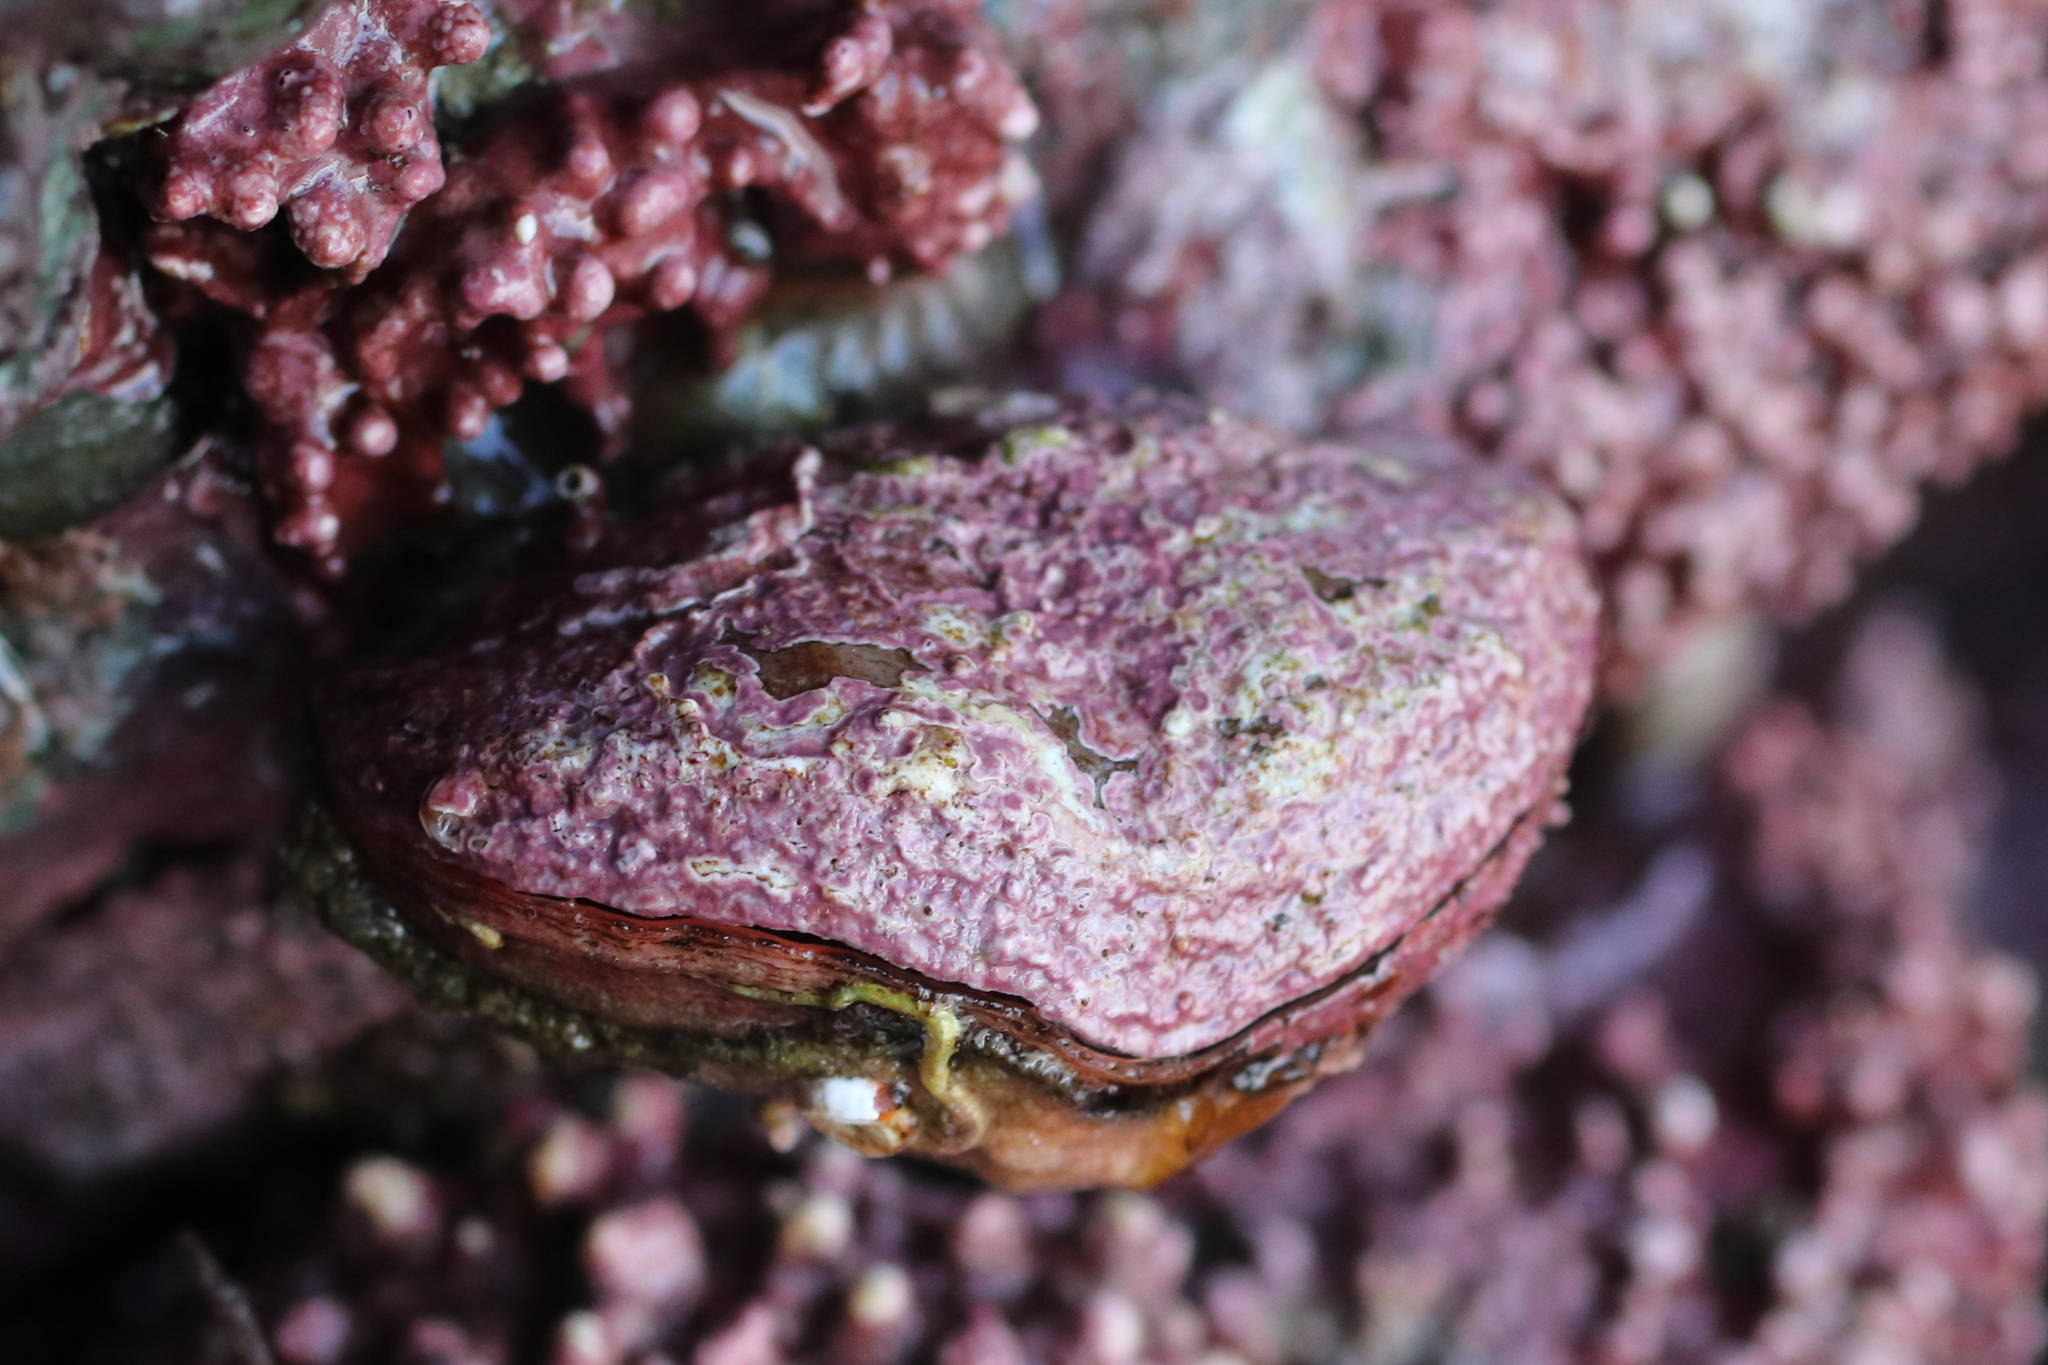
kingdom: Animalia
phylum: Brachiopoda
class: Rhynchonellata
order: Terebratulida
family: Terebrataliidae
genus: Terebratalia
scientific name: Terebratalia transversa
